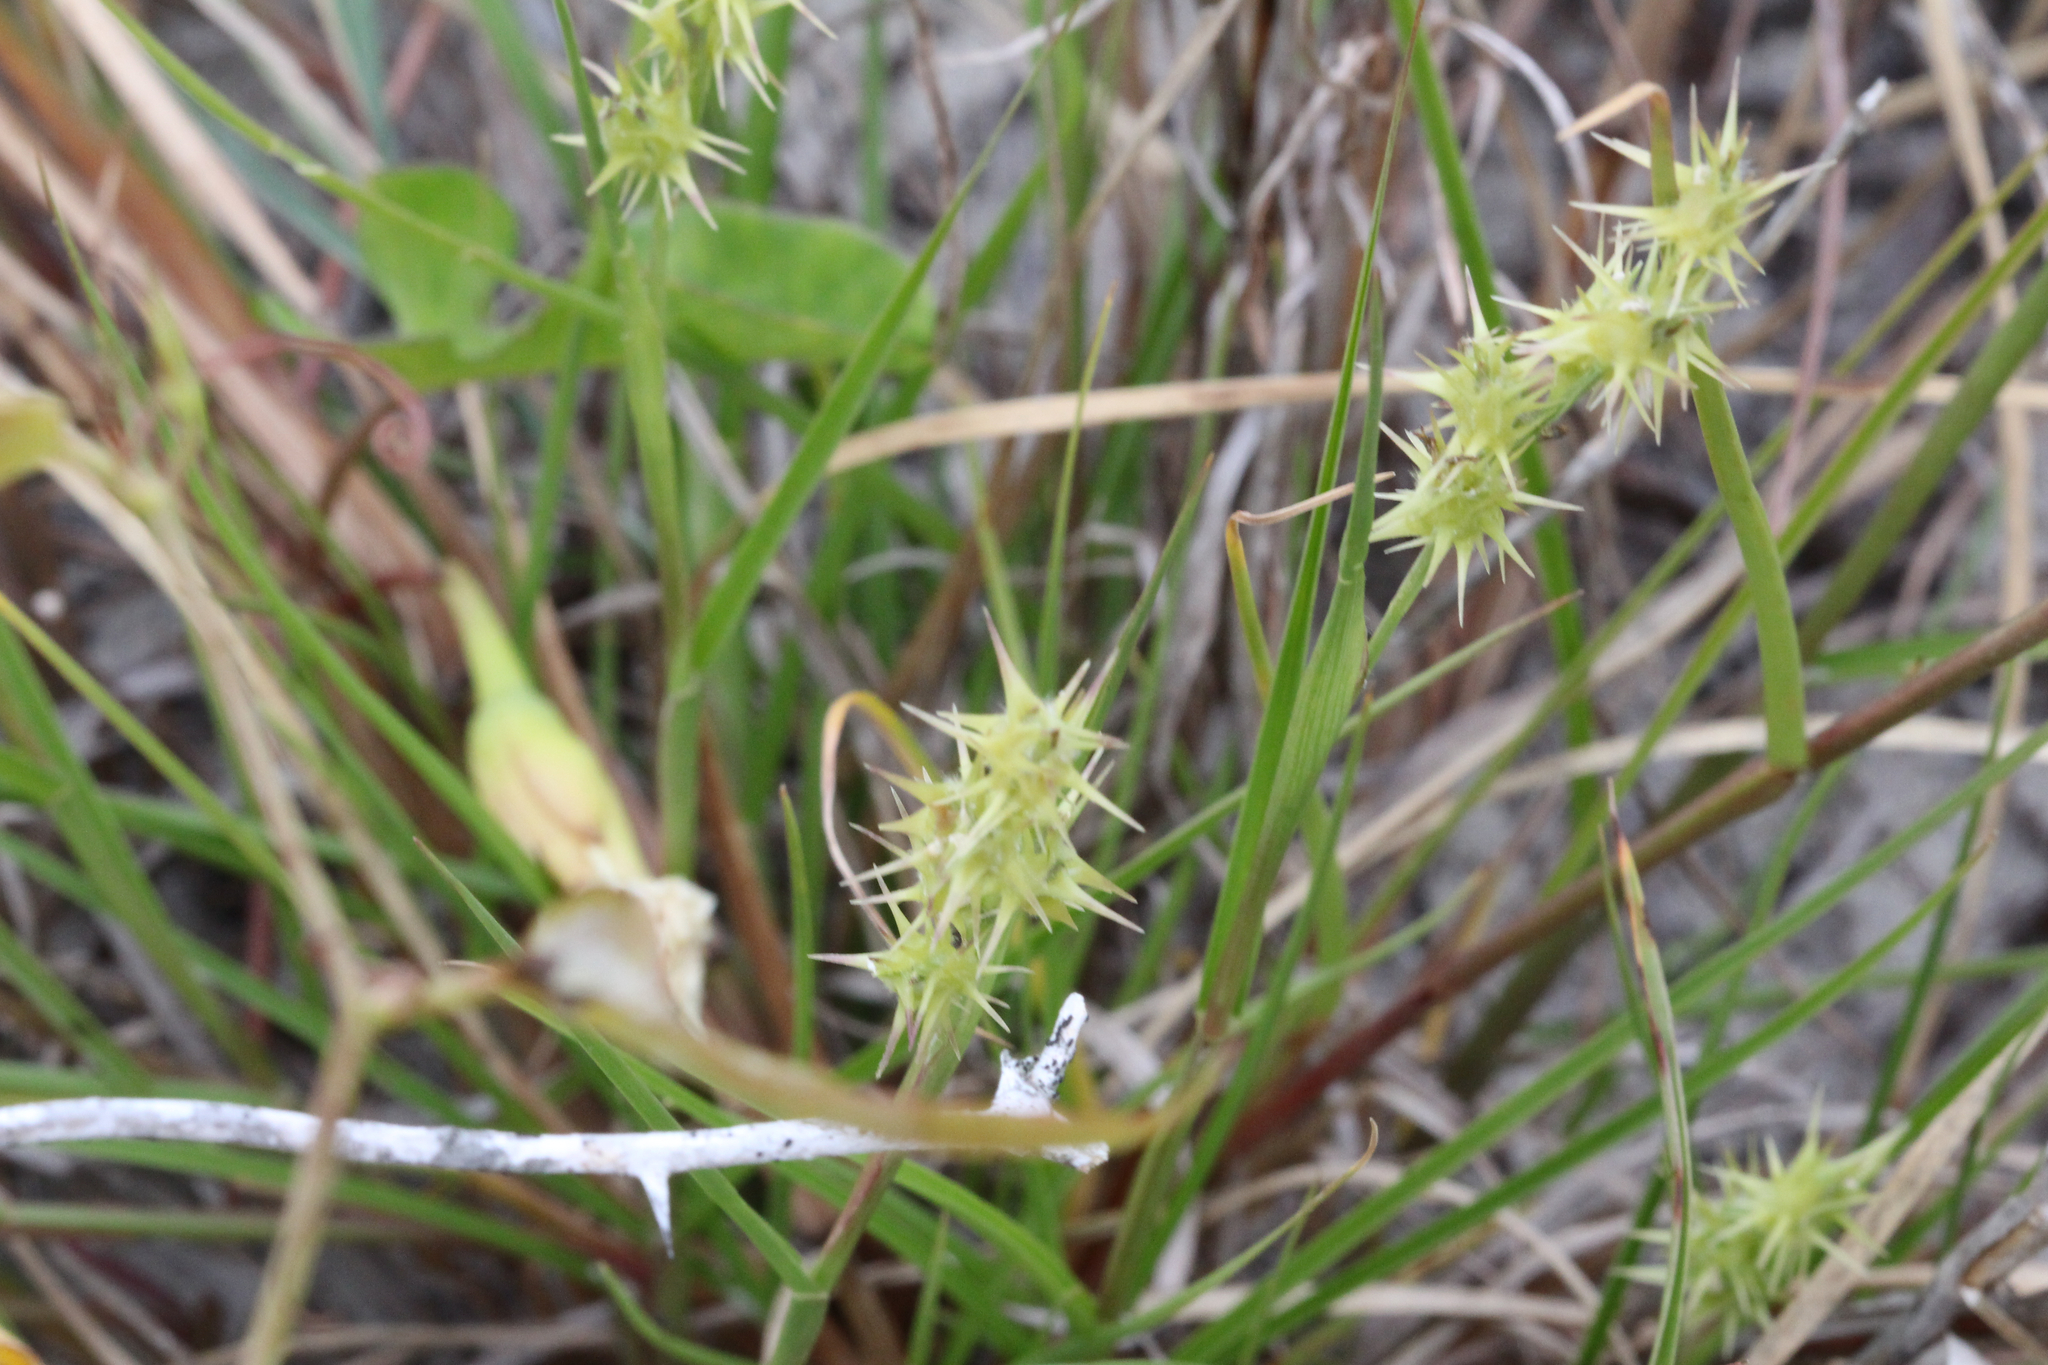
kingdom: Plantae
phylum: Tracheophyta
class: Liliopsida
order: Poales
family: Poaceae
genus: Cenchrus
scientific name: Cenchrus spinifex
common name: Coast sandbur
